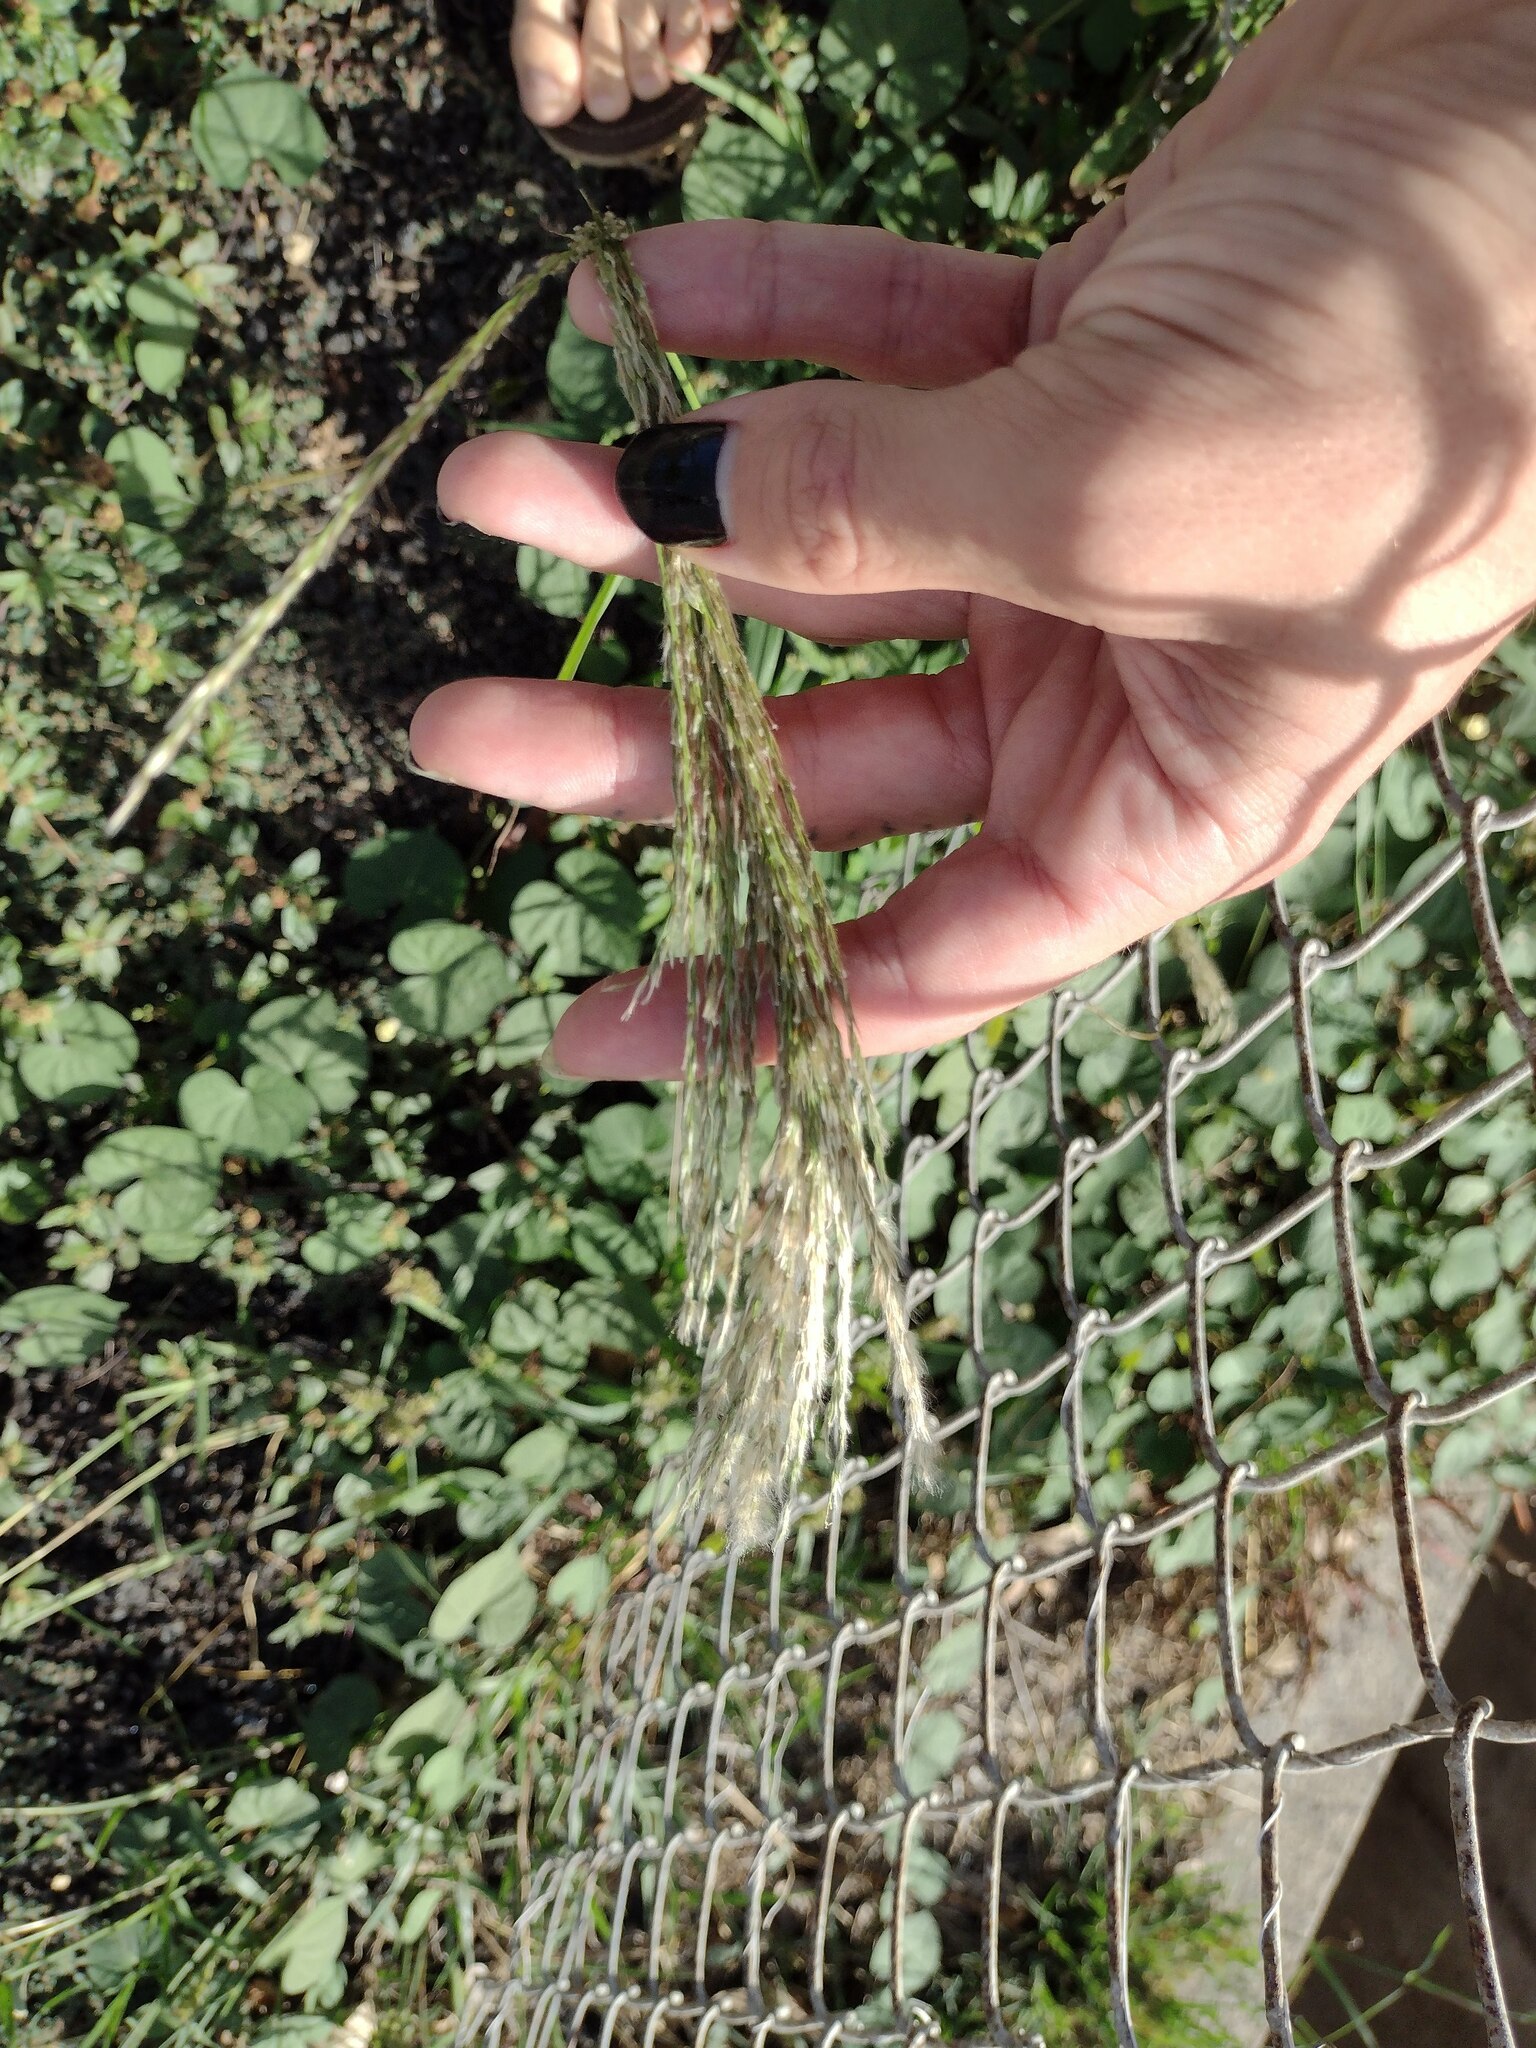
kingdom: Plantae
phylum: Tracheophyta
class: Liliopsida
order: Poales
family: Poaceae
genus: Digitaria
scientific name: Digitaria insularis
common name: Sourgrass
